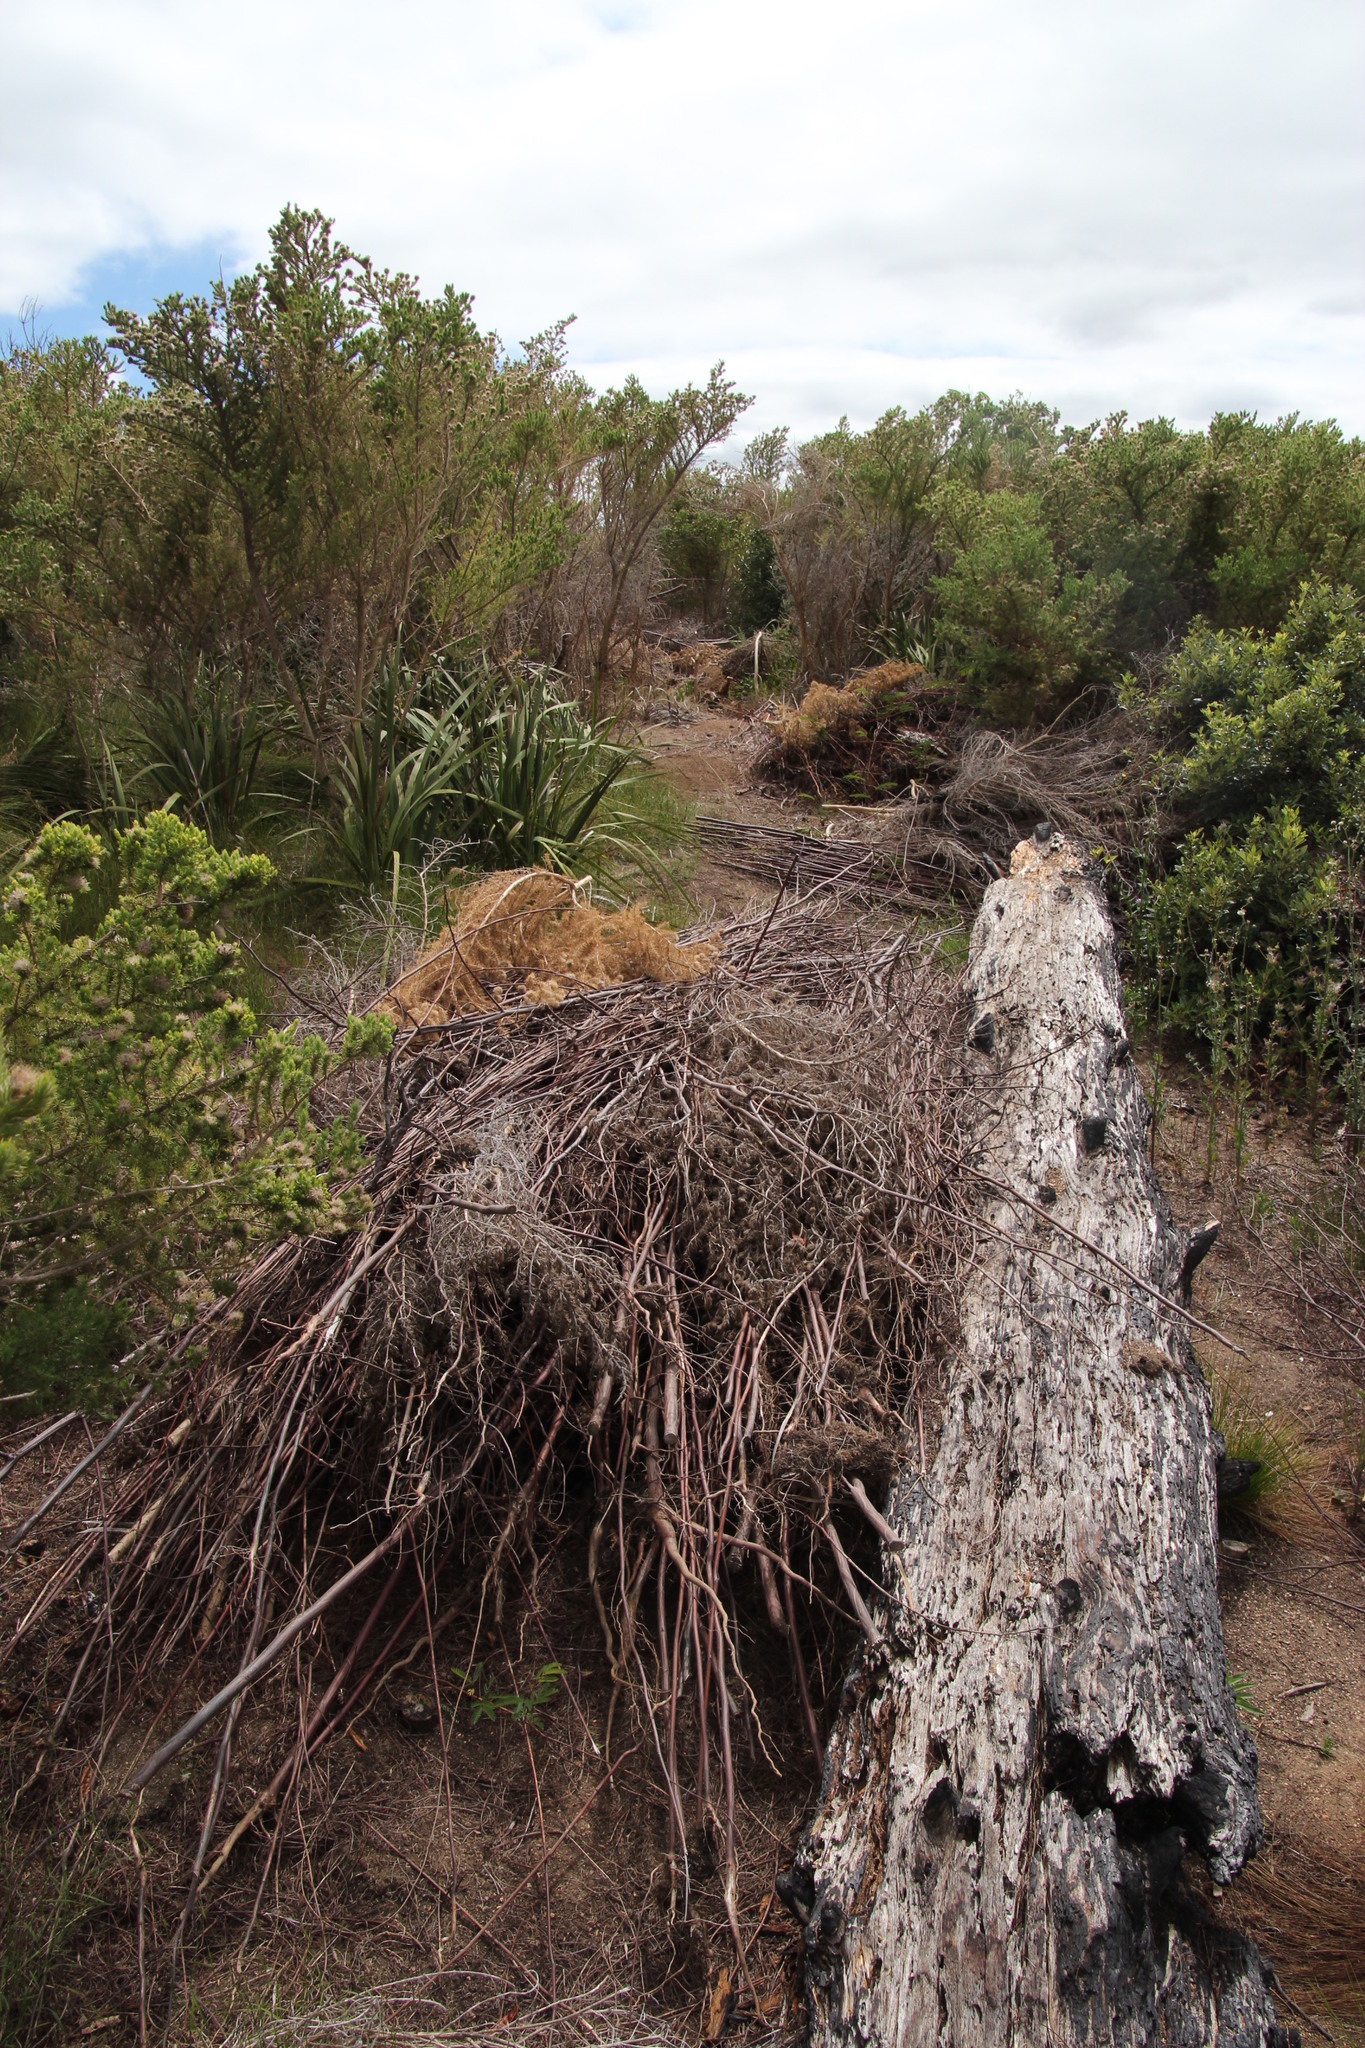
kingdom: Plantae
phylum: Tracheophyta
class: Magnoliopsida
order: Fabales
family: Fabaceae
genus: Aspalathus
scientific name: Aspalathus chenopoda
